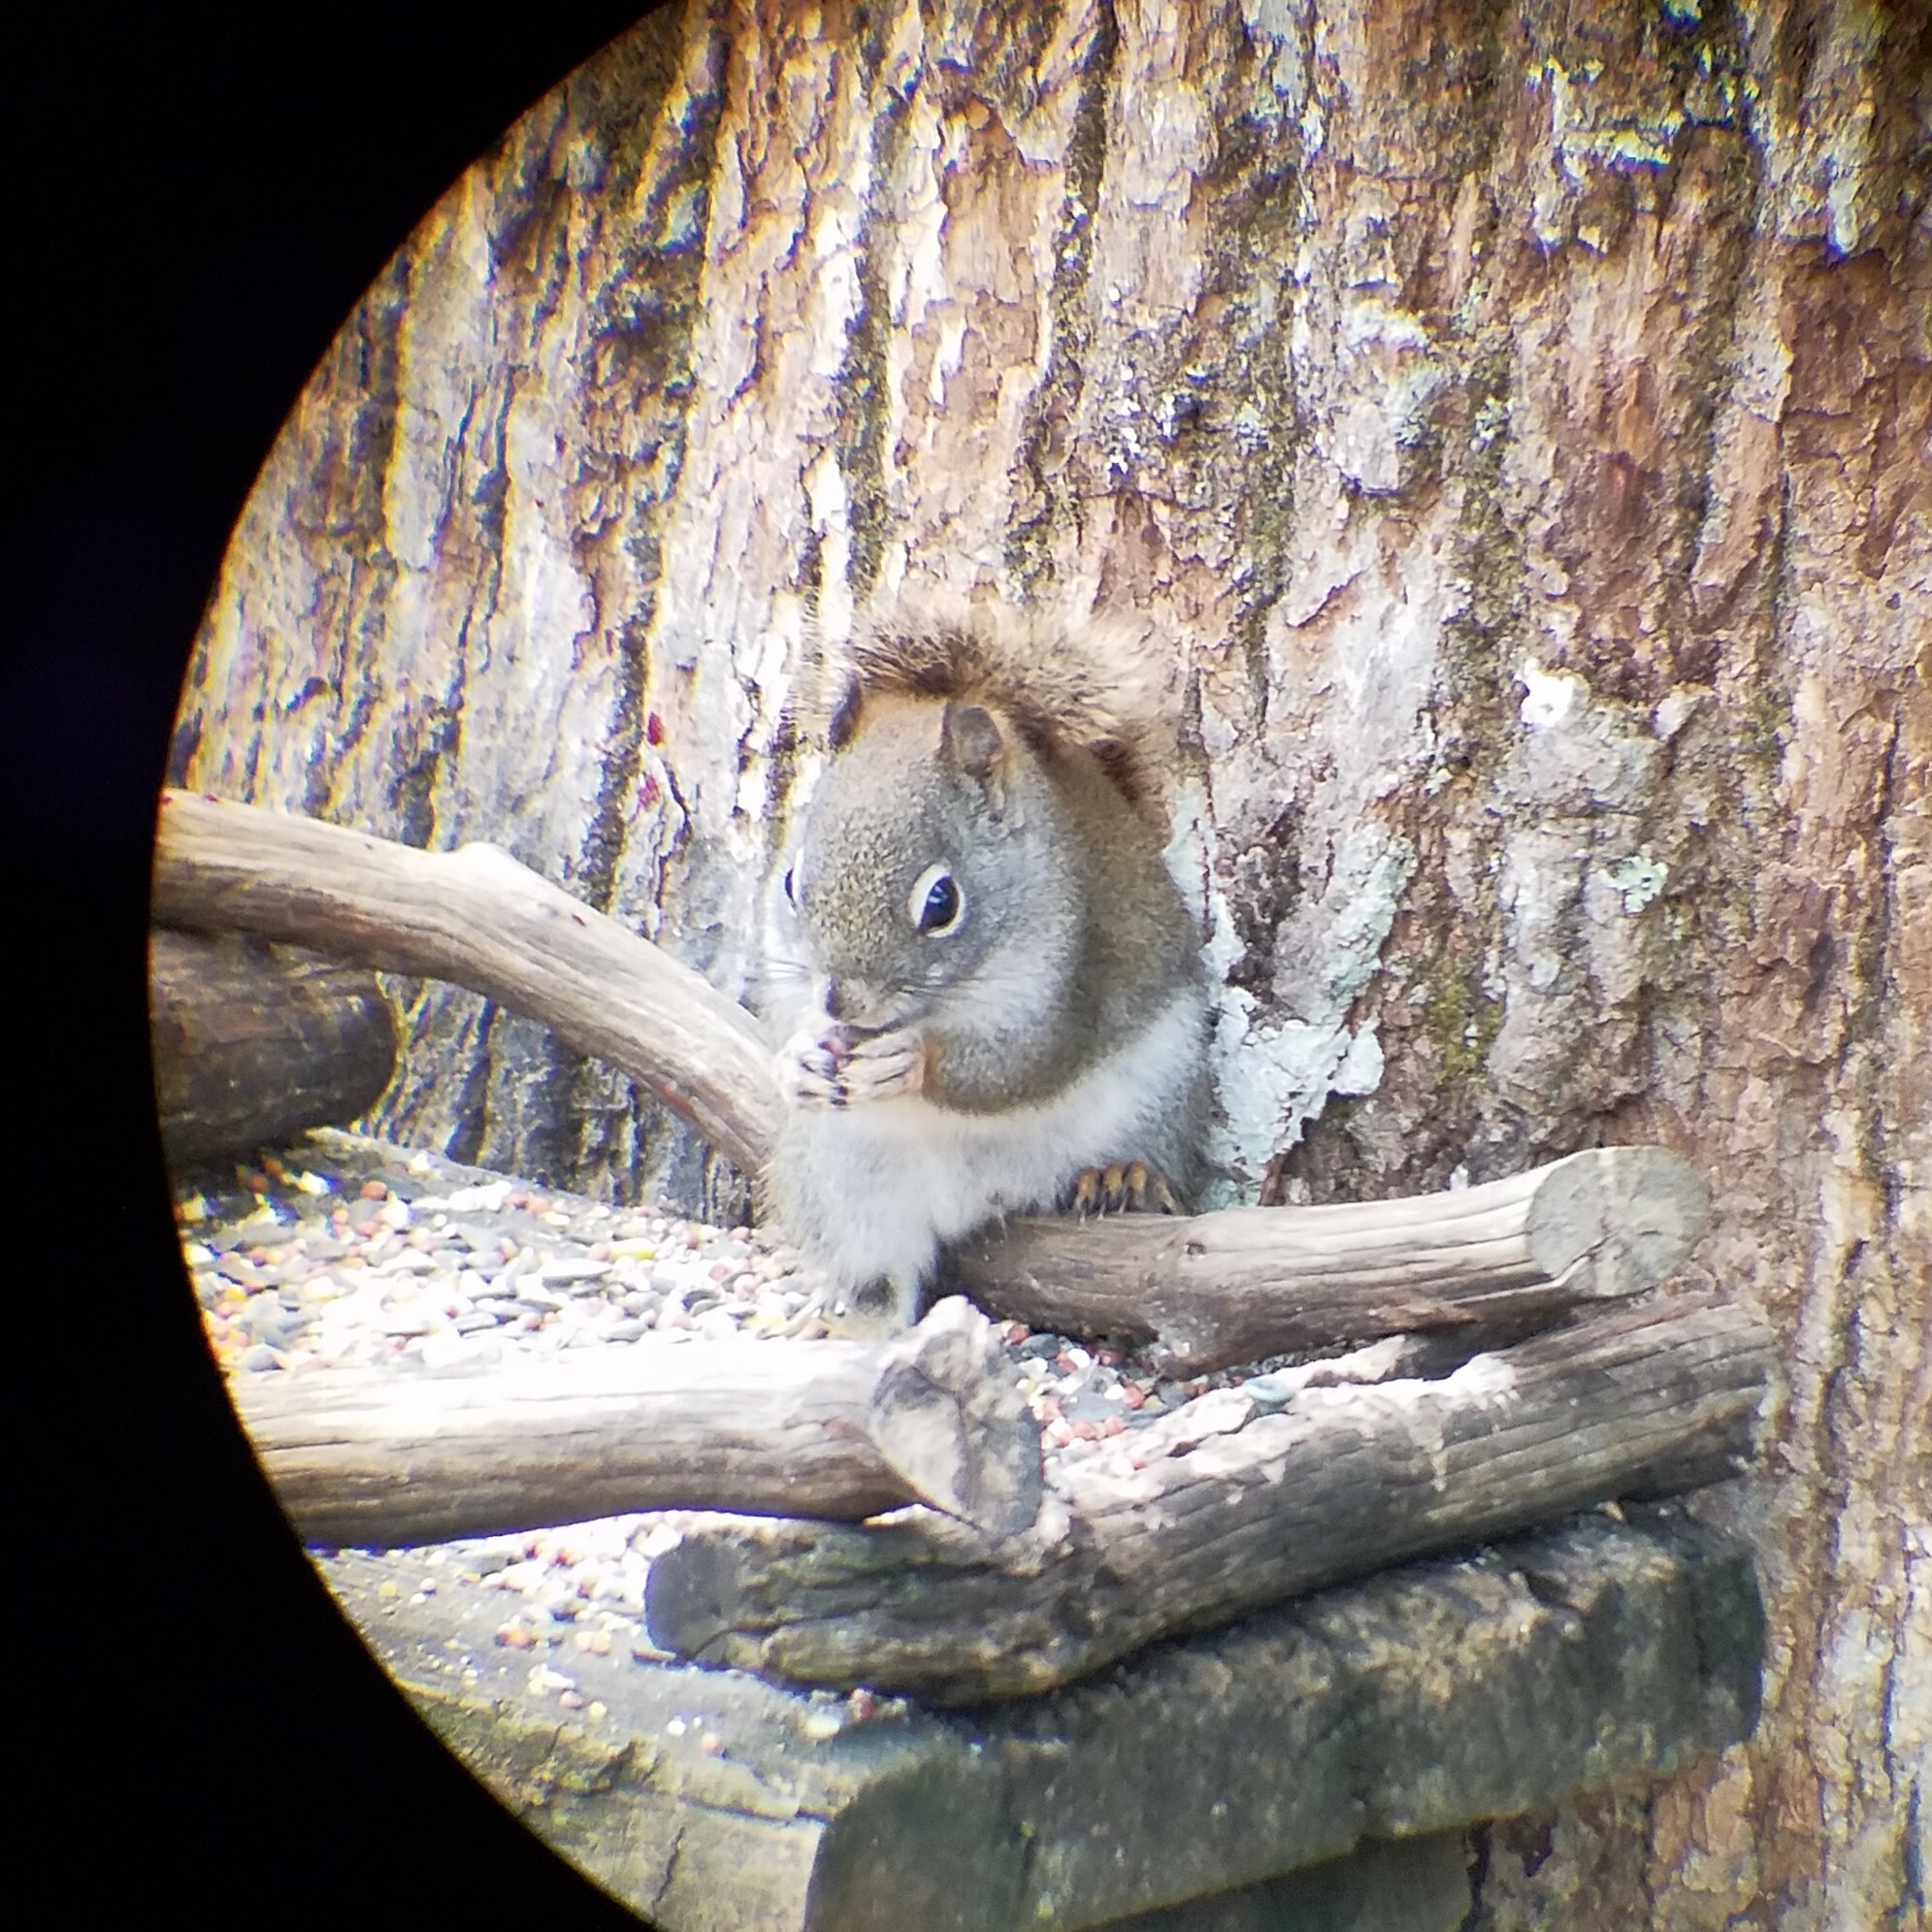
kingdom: Animalia
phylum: Chordata
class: Mammalia
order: Rodentia
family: Sciuridae
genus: Tamiasciurus
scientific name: Tamiasciurus hudsonicus
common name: Red squirrel
